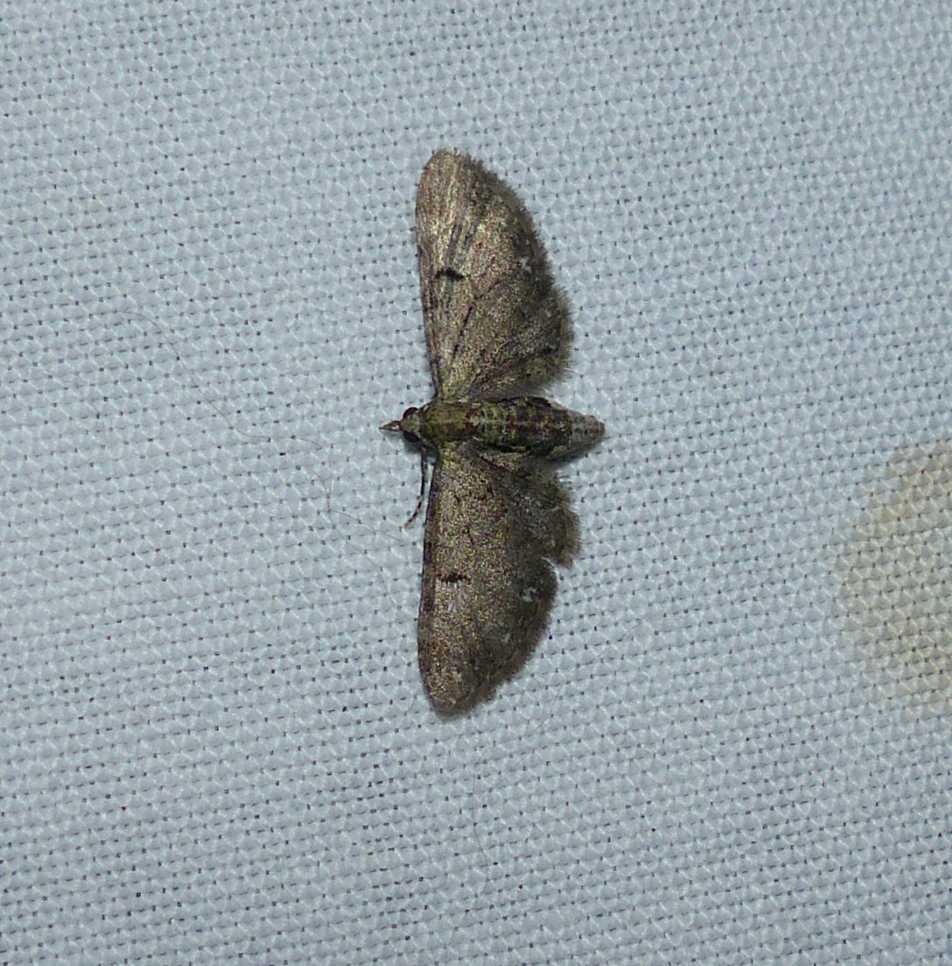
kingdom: Animalia
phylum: Arthropoda
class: Insecta
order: Lepidoptera
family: Geometridae
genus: Eupithecia
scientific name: Eupithecia miserulata
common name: Common eupithecia
